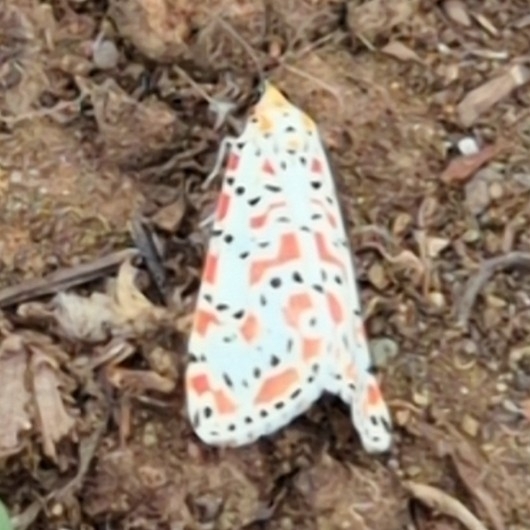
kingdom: Animalia
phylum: Arthropoda
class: Insecta
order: Lepidoptera
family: Erebidae
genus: Utetheisa
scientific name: Utetheisa pulchella
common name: Crimson speckled
